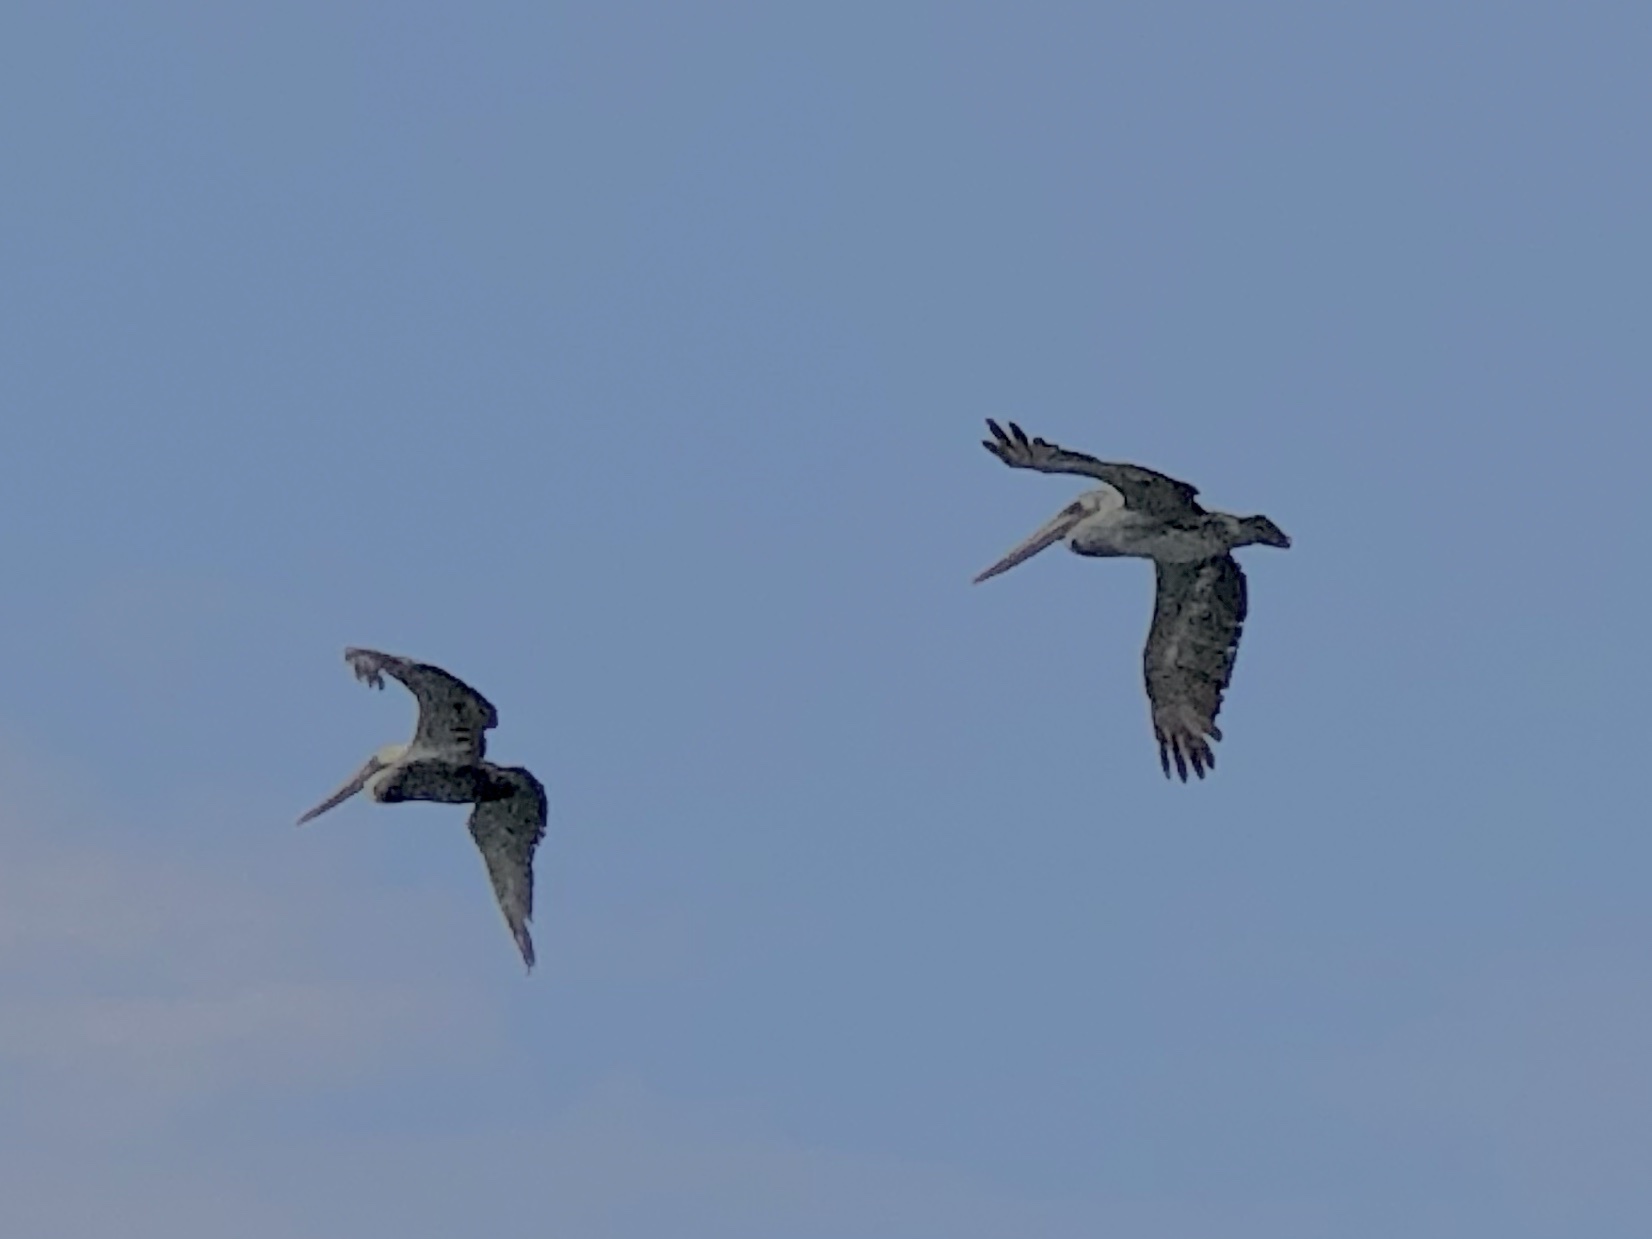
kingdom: Animalia
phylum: Chordata
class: Aves
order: Pelecaniformes
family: Pelecanidae
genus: Pelecanus
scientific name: Pelecanus occidentalis
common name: Brown pelican
